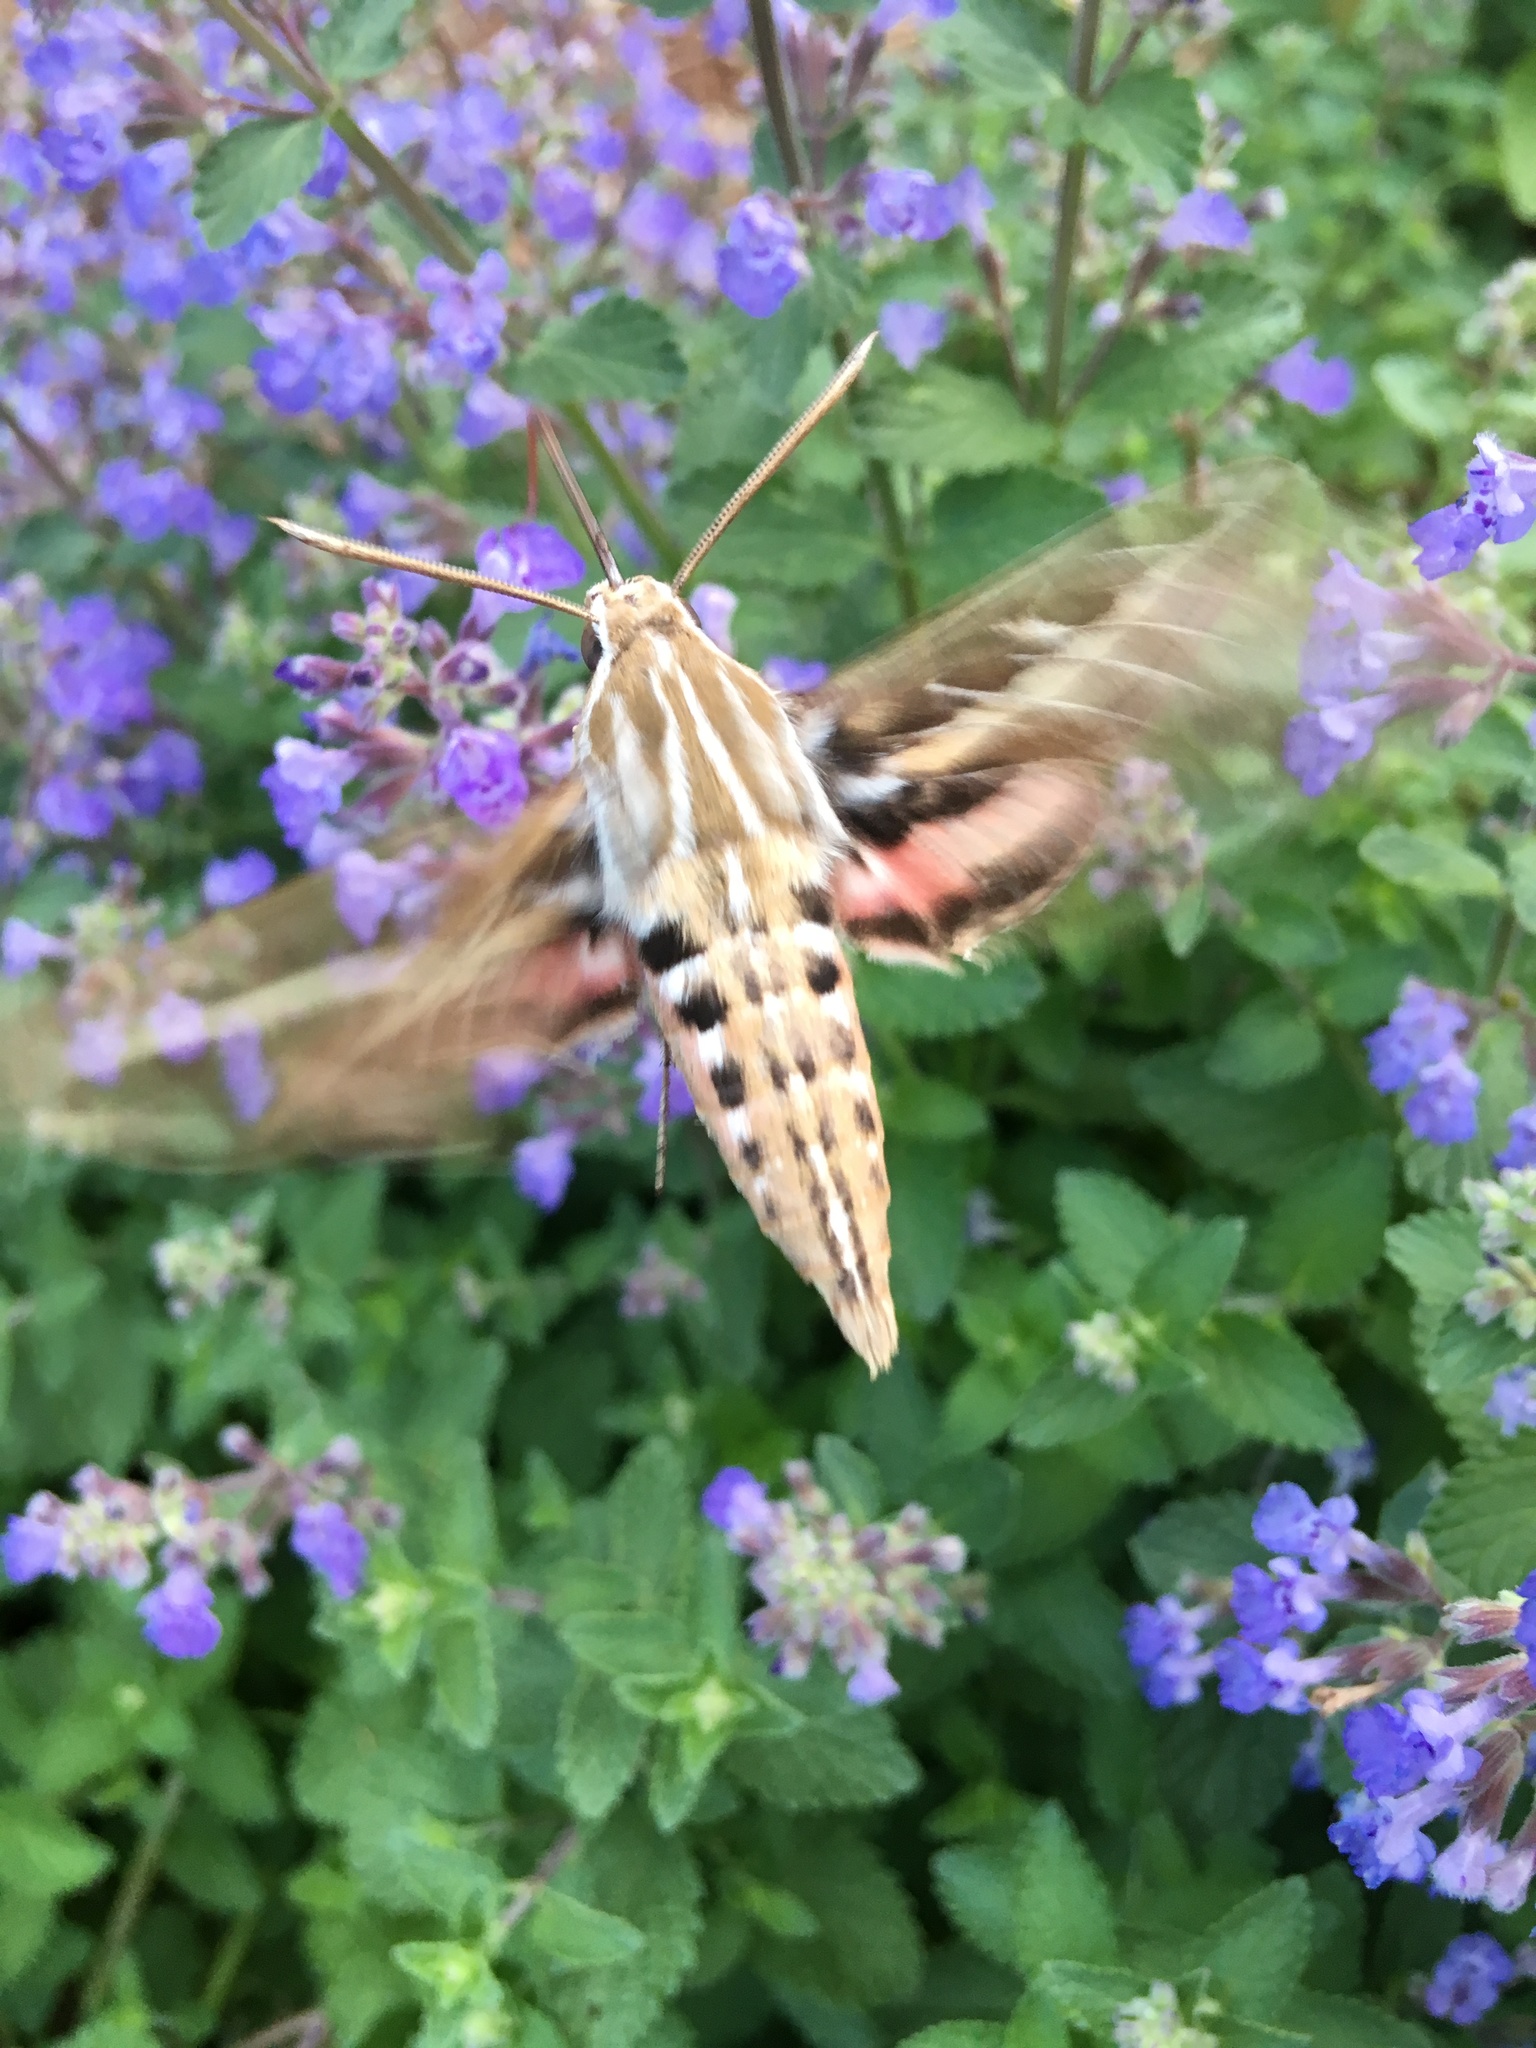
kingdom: Animalia
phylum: Arthropoda
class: Insecta
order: Lepidoptera
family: Sphingidae
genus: Hyles
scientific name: Hyles lineata
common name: White-lined sphinx
